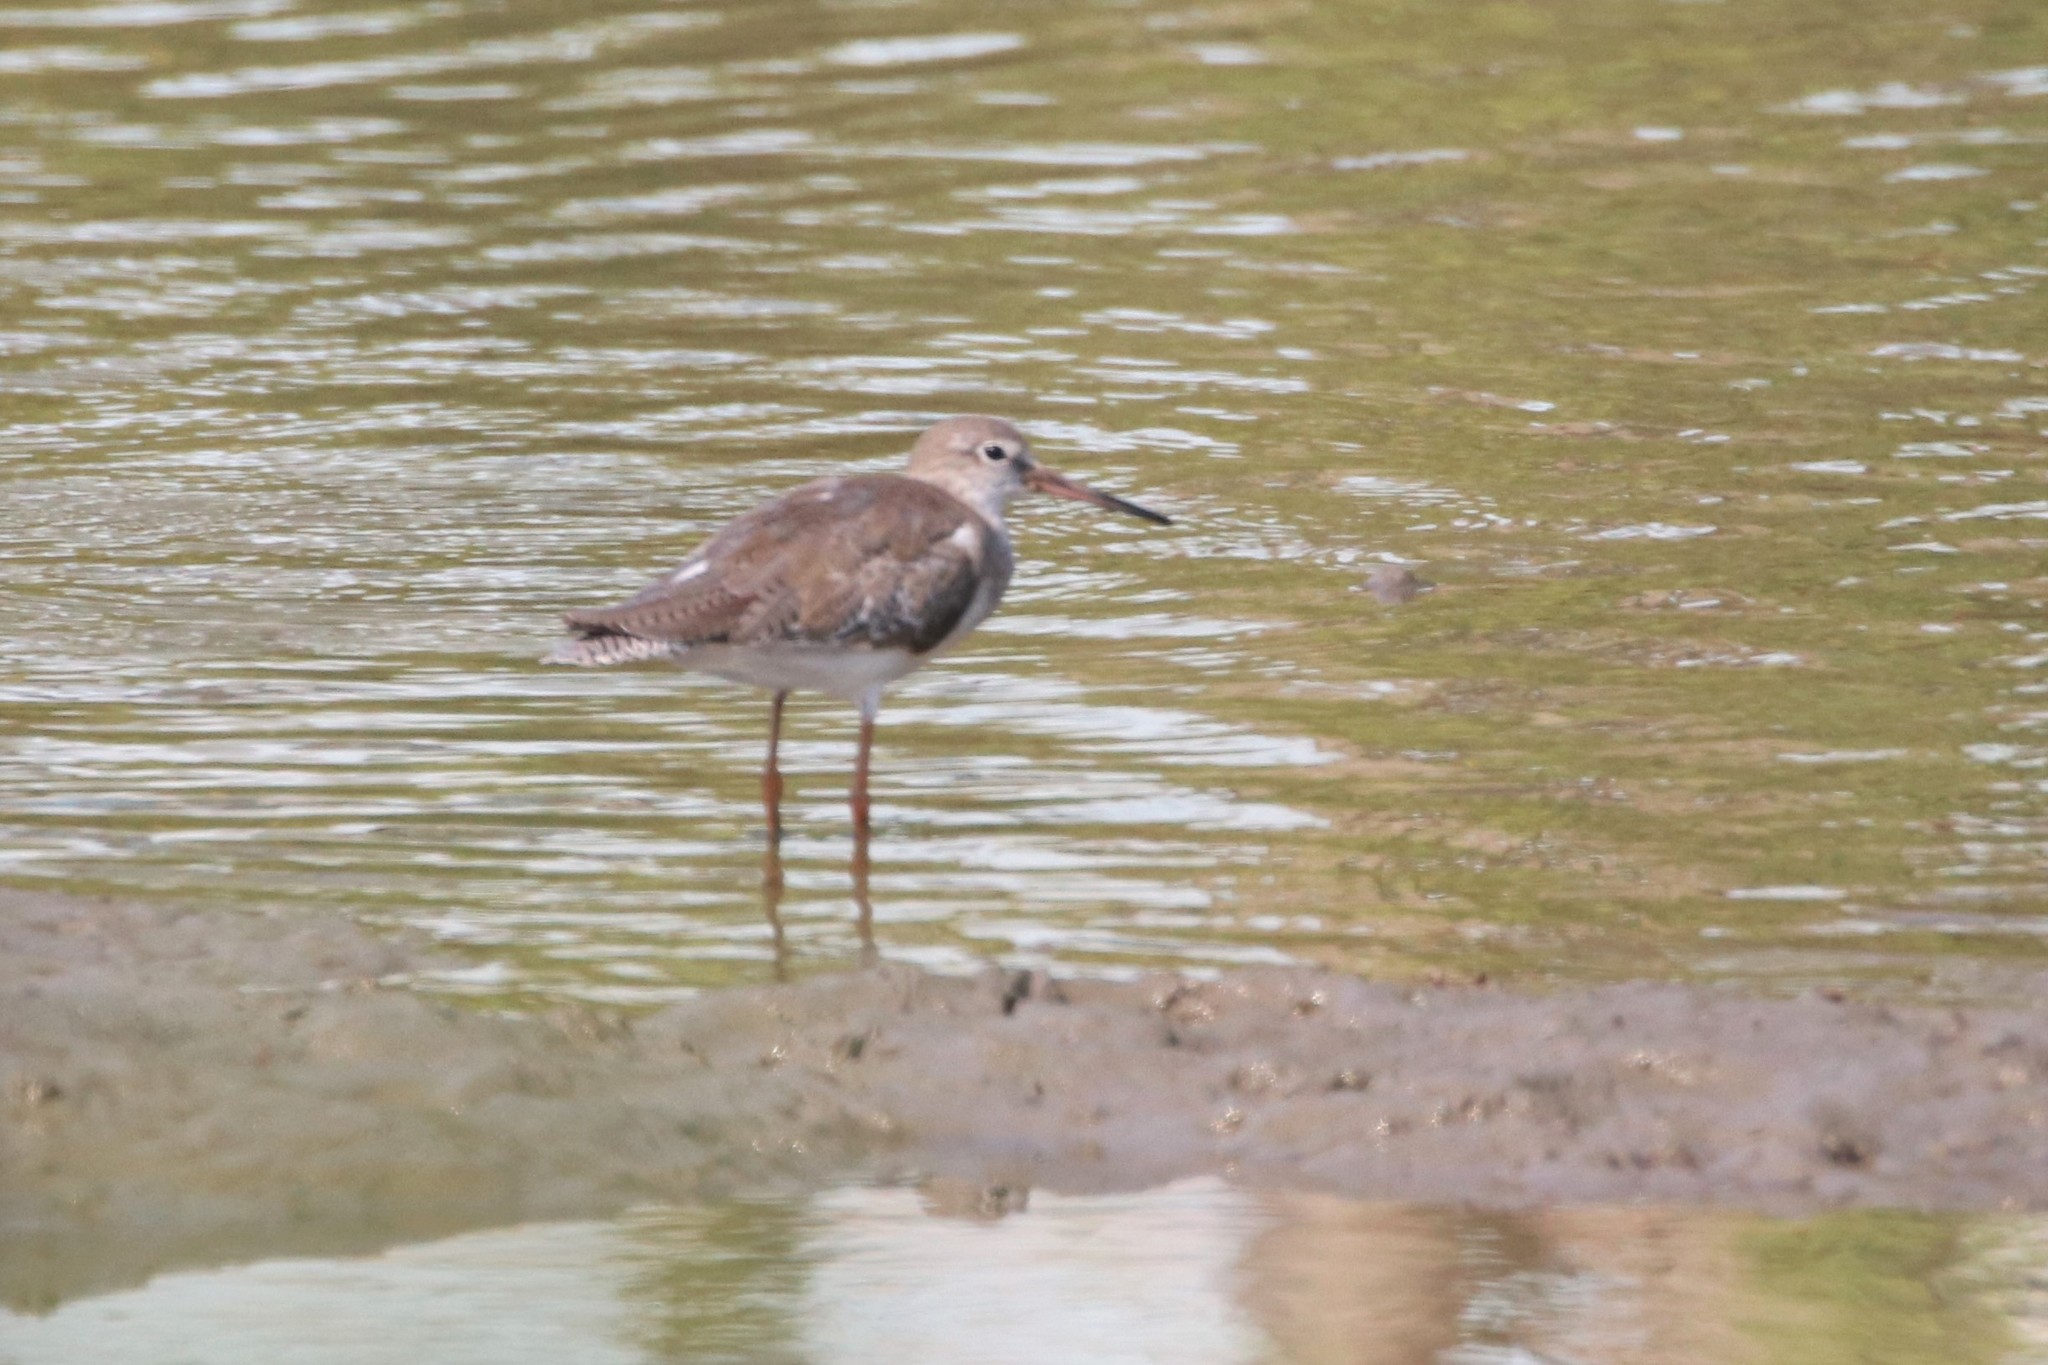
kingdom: Animalia
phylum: Chordata
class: Aves
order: Charadriiformes
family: Scolopacidae
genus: Tringa
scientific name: Tringa totanus
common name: Common redshank
